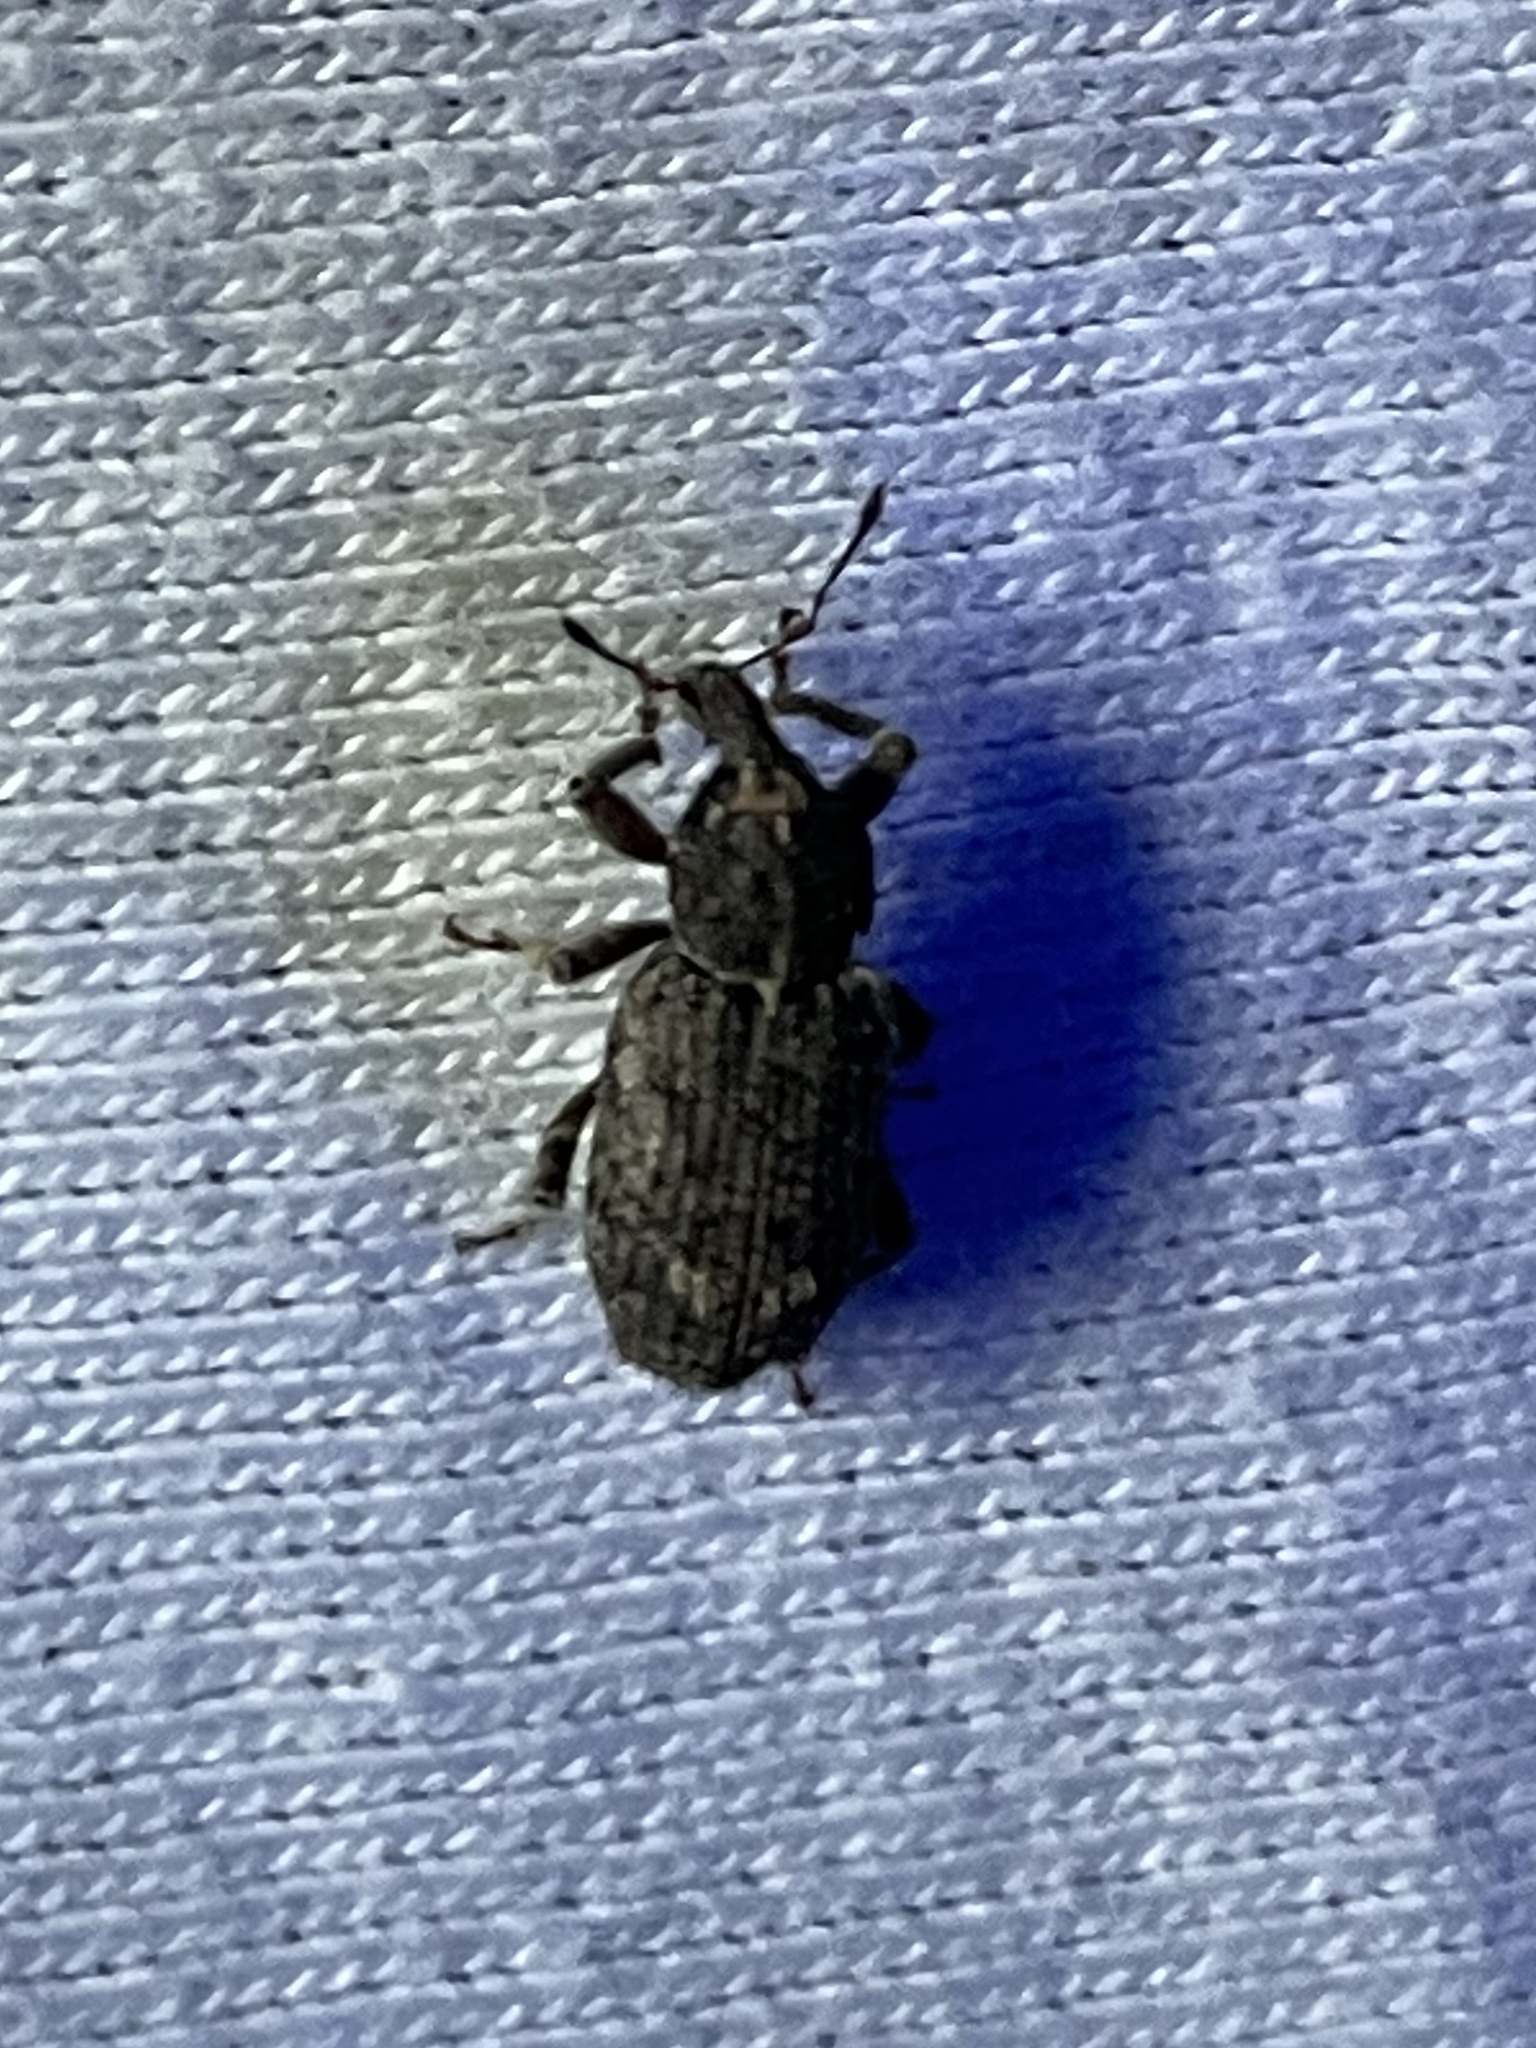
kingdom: Animalia
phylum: Arthropoda
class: Insecta
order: Coleoptera
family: Curculionidae
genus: Listroderes
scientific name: Listroderes difficilis
